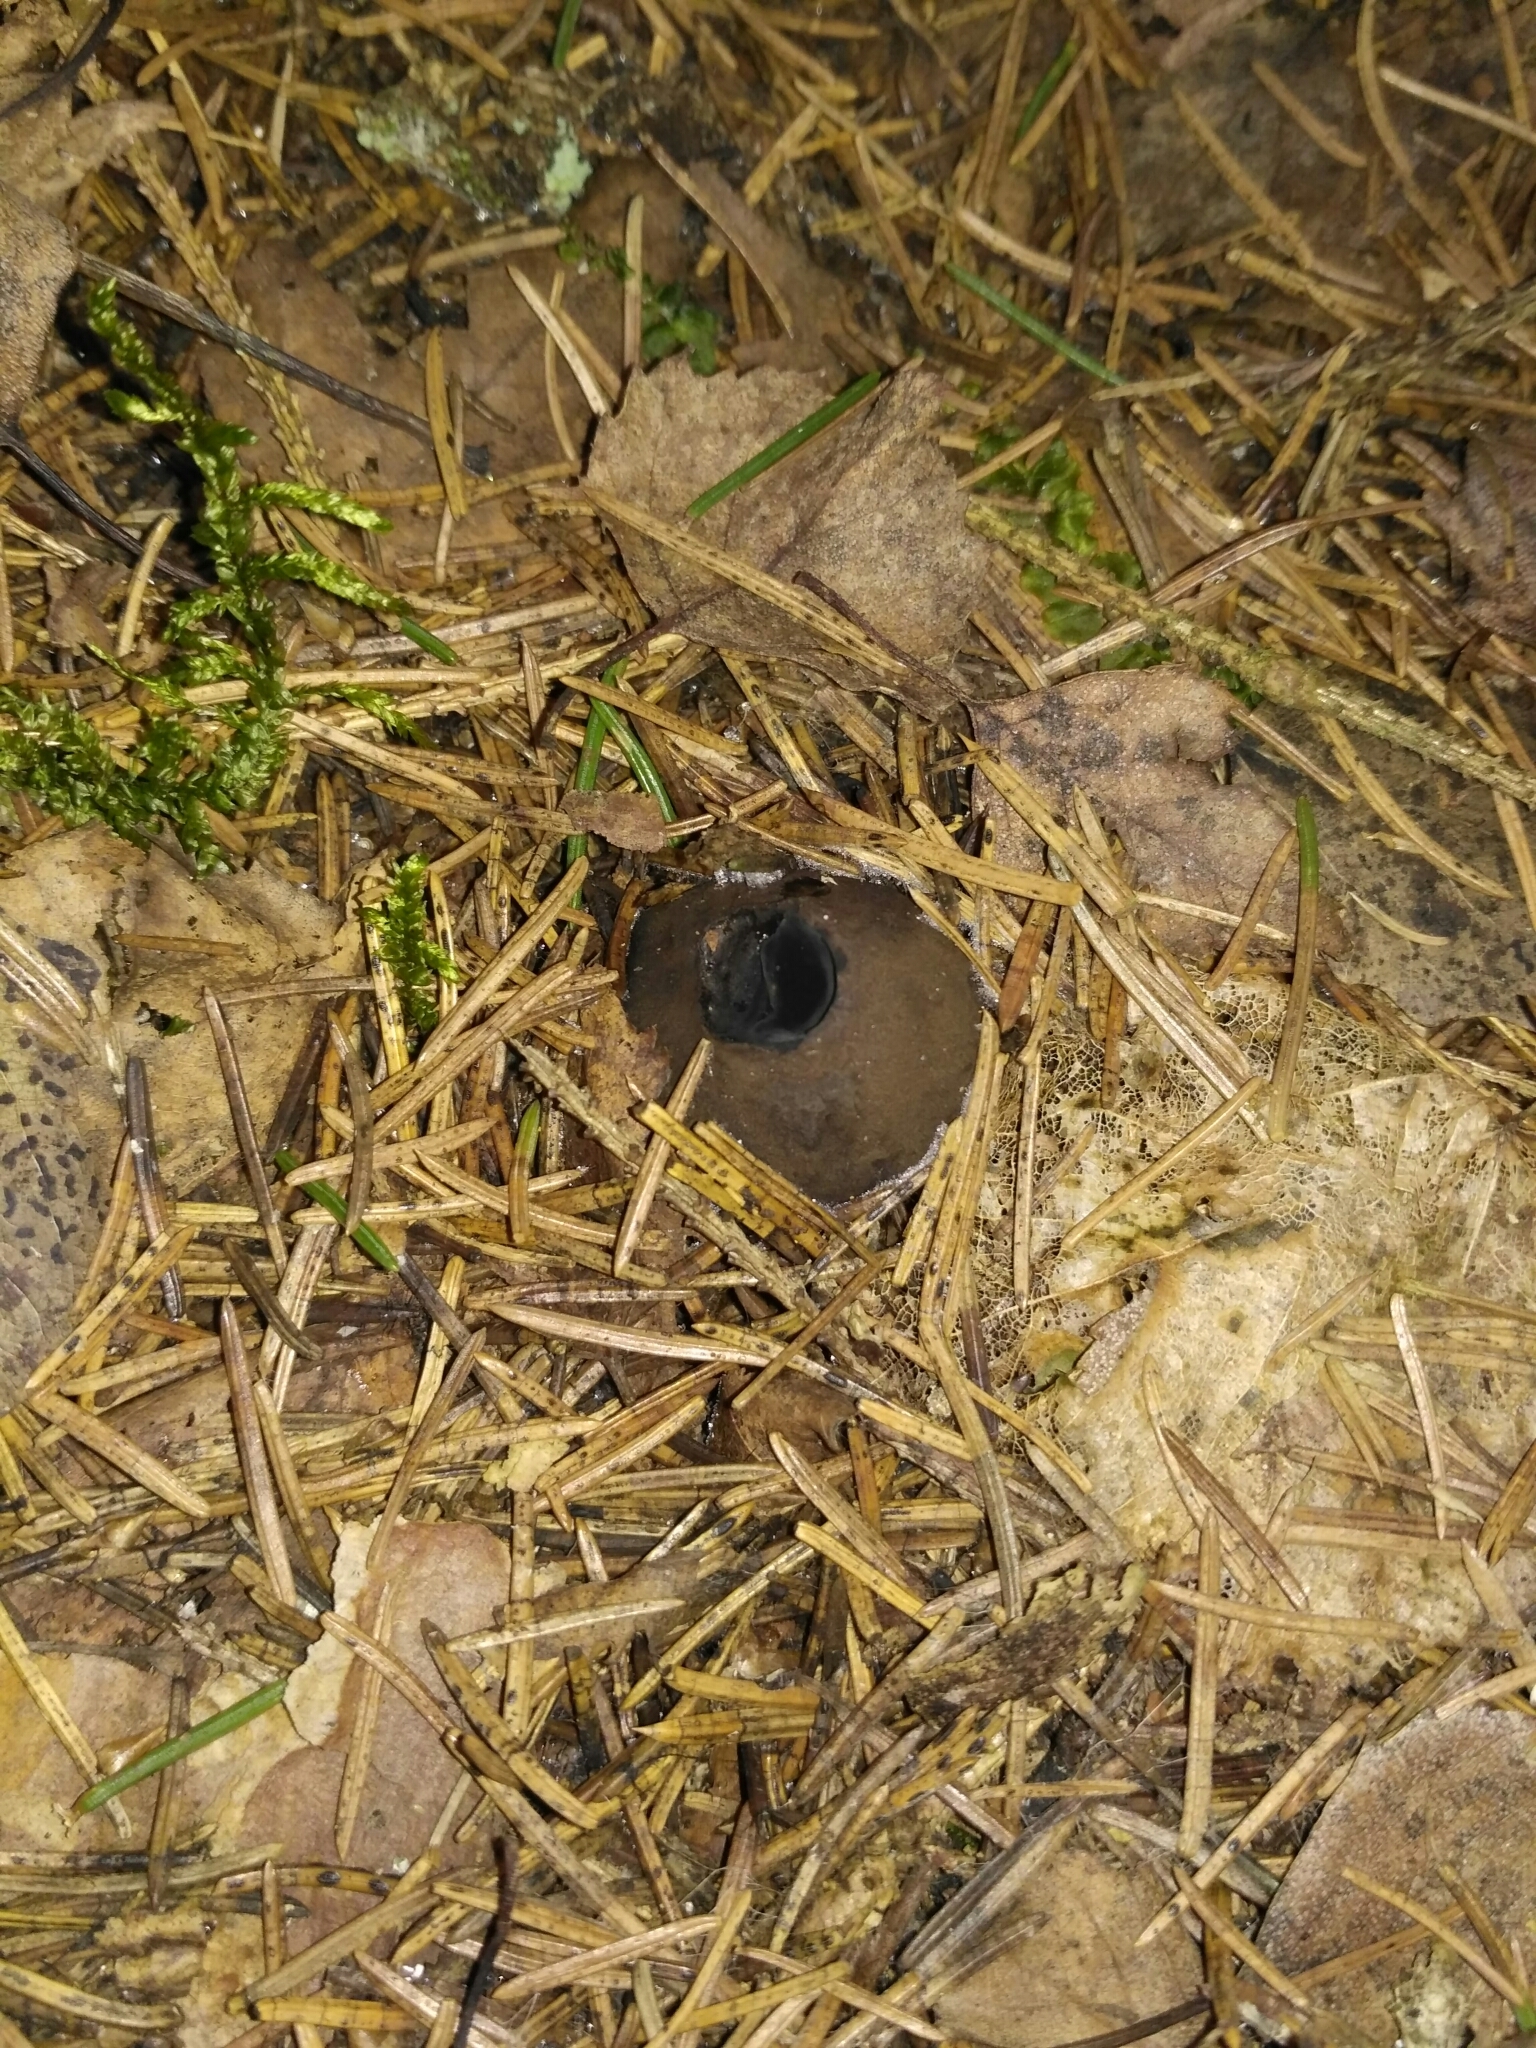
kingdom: Fungi
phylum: Ascomycota
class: Pezizomycetes
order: Pezizales
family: Sarcosomataceae
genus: Sarcosoma
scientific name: Sarcosoma globosum
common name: Charred-pancake cup
